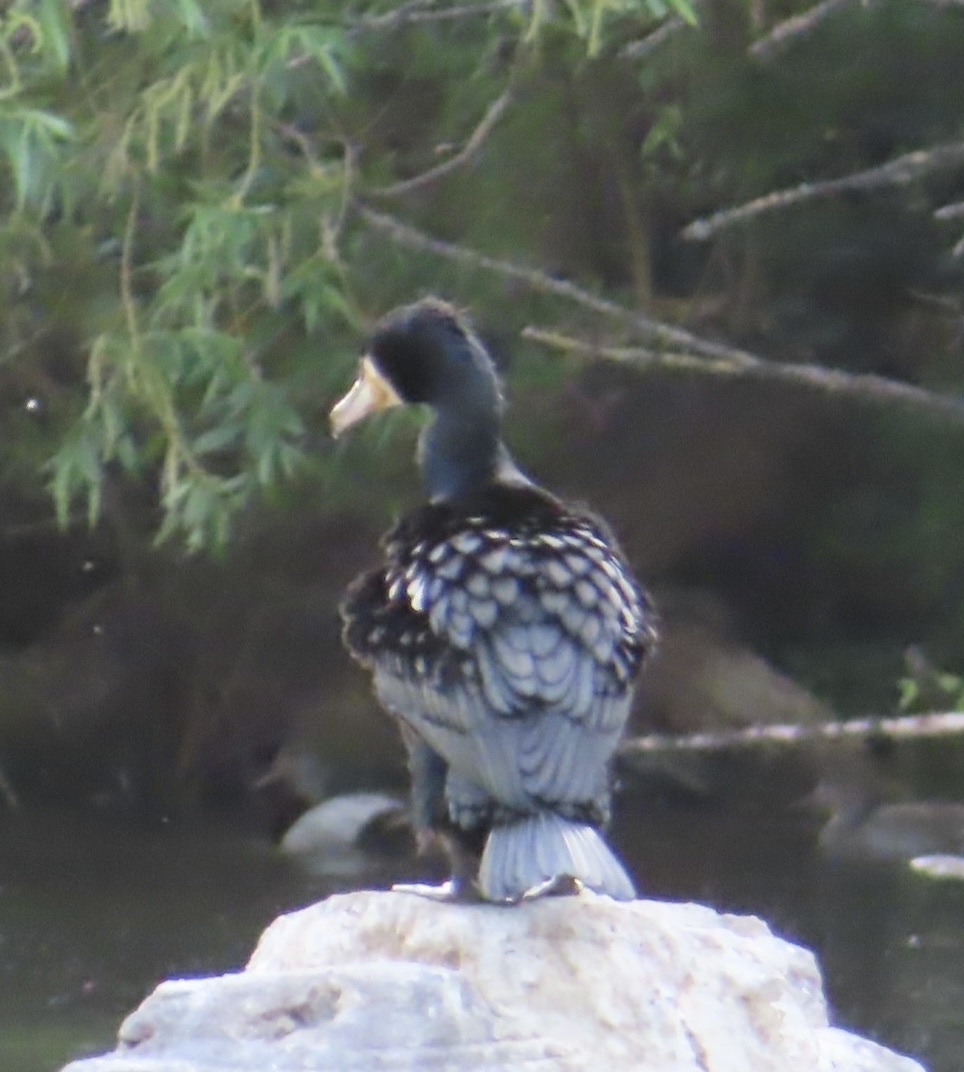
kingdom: Animalia
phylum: Chordata
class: Aves
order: Suliformes
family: Phalacrocoracidae
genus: Phalacrocorax
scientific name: Phalacrocorax carbo
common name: Great cormorant
